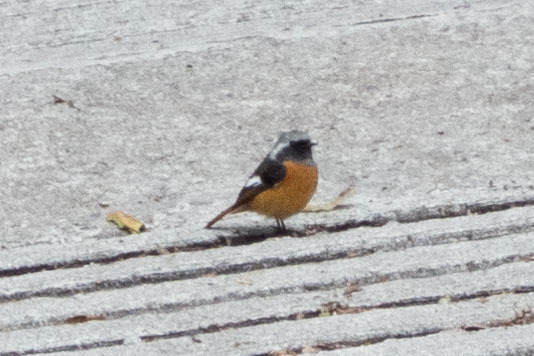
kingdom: Animalia
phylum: Chordata
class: Aves
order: Passeriformes
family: Muscicapidae
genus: Phoenicurus
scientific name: Phoenicurus auroreus
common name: Daurian redstart
